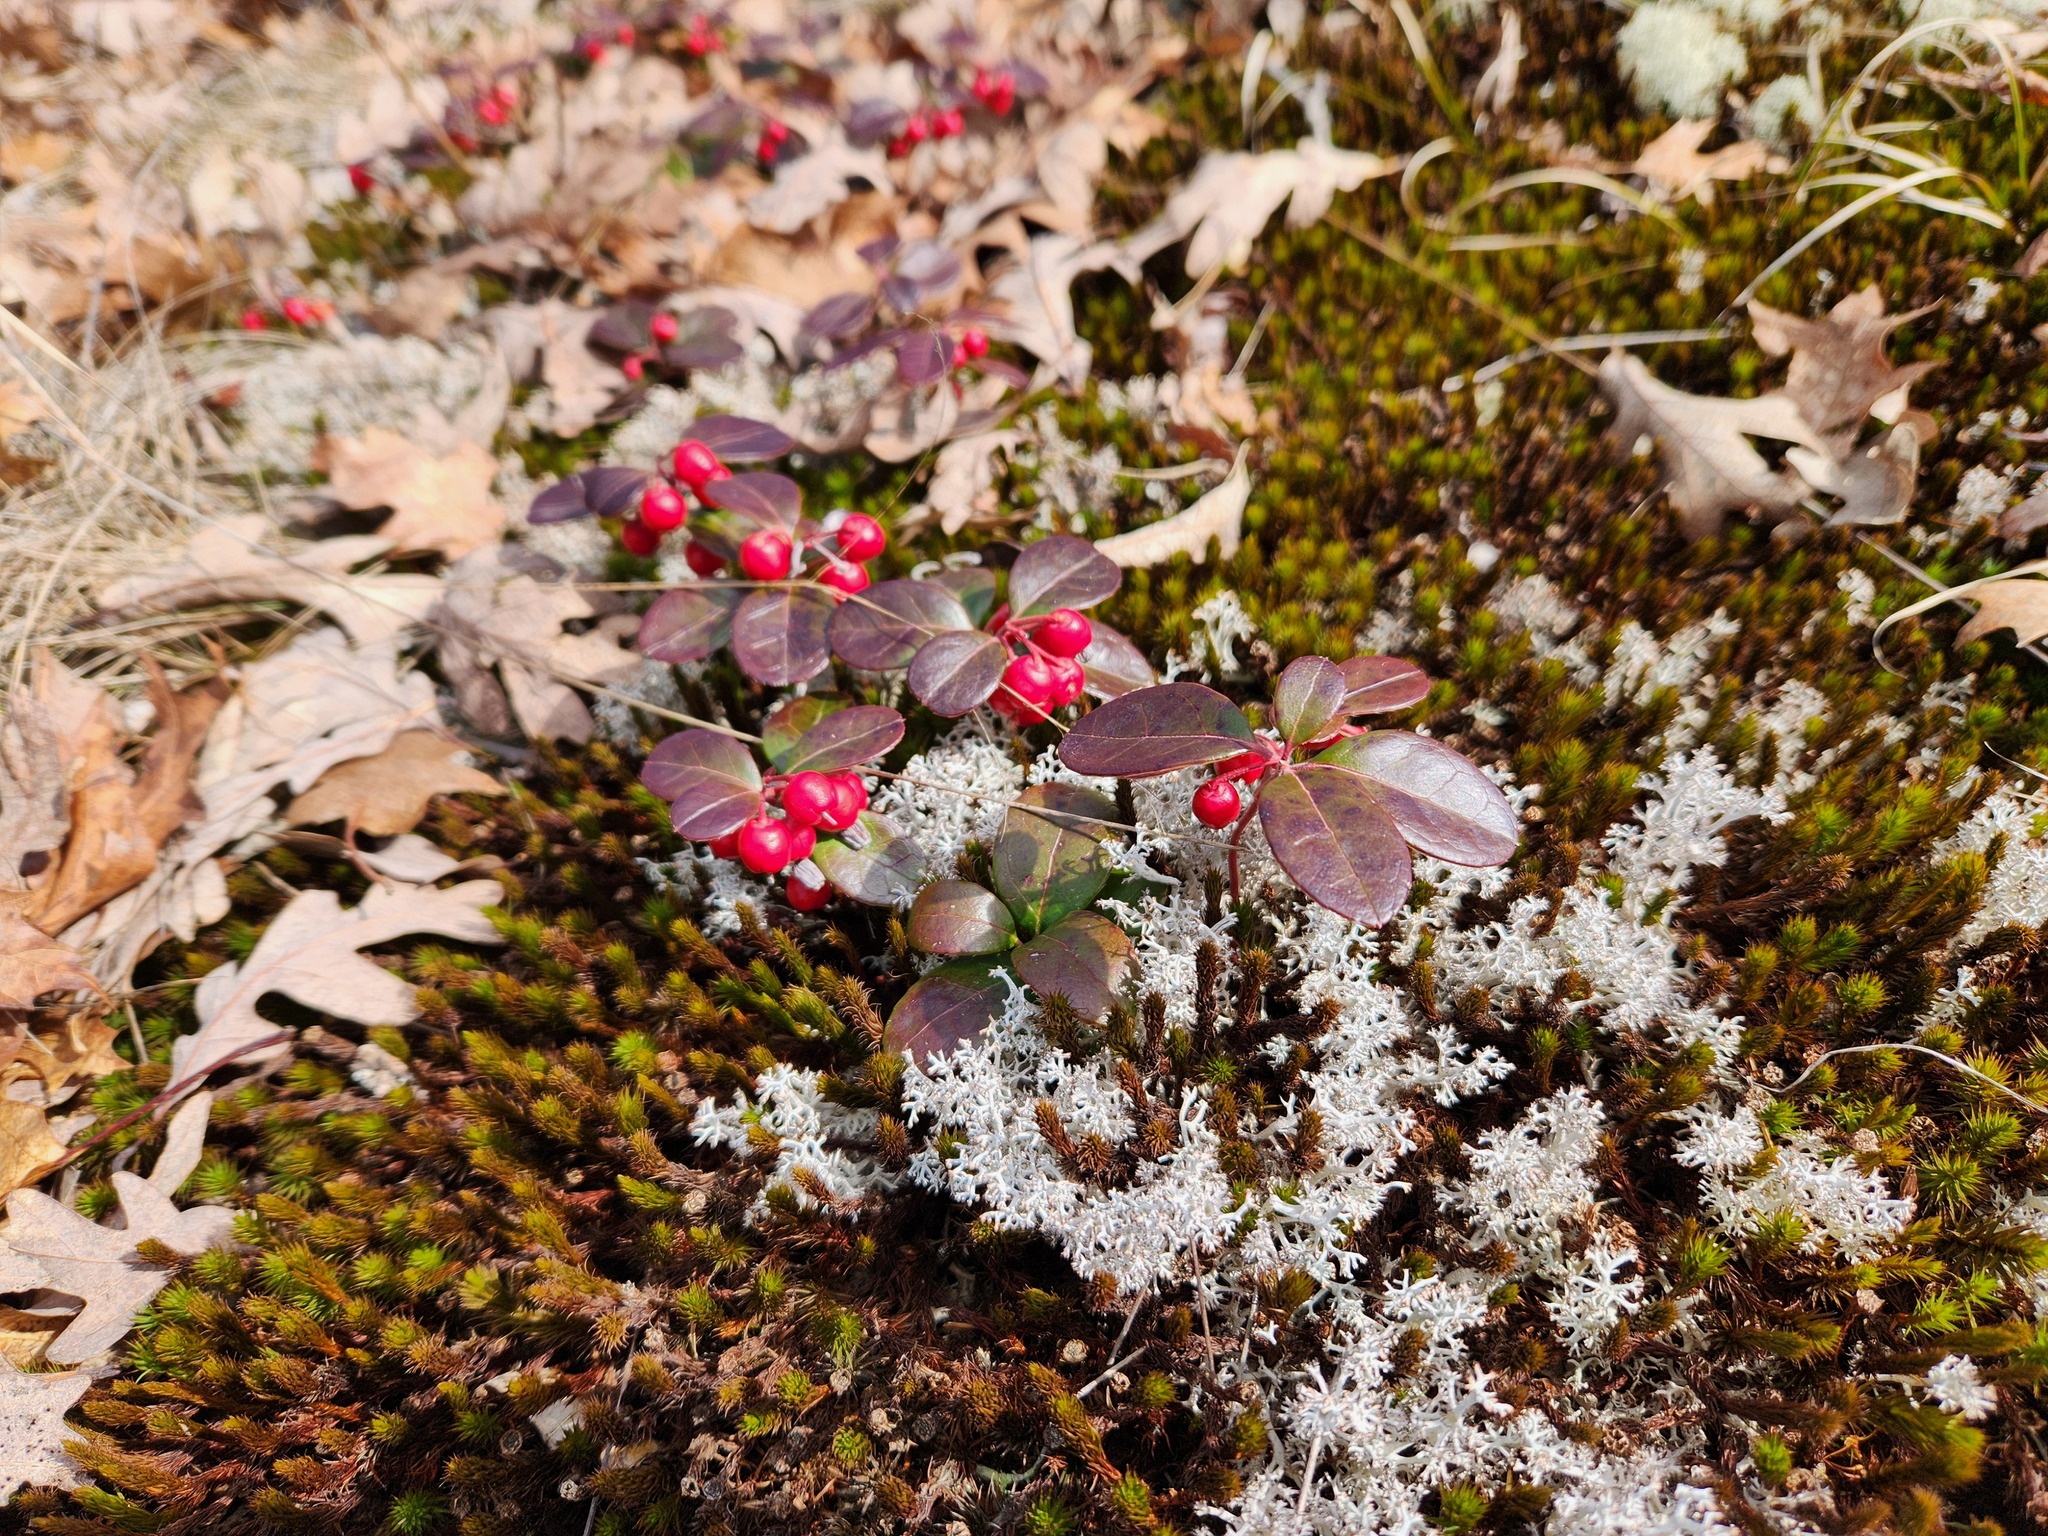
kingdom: Plantae
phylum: Tracheophyta
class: Magnoliopsida
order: Ericales
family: Ericaceae
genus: Gaultheria
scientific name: Gaultheria procumbens
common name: Checkerberry
